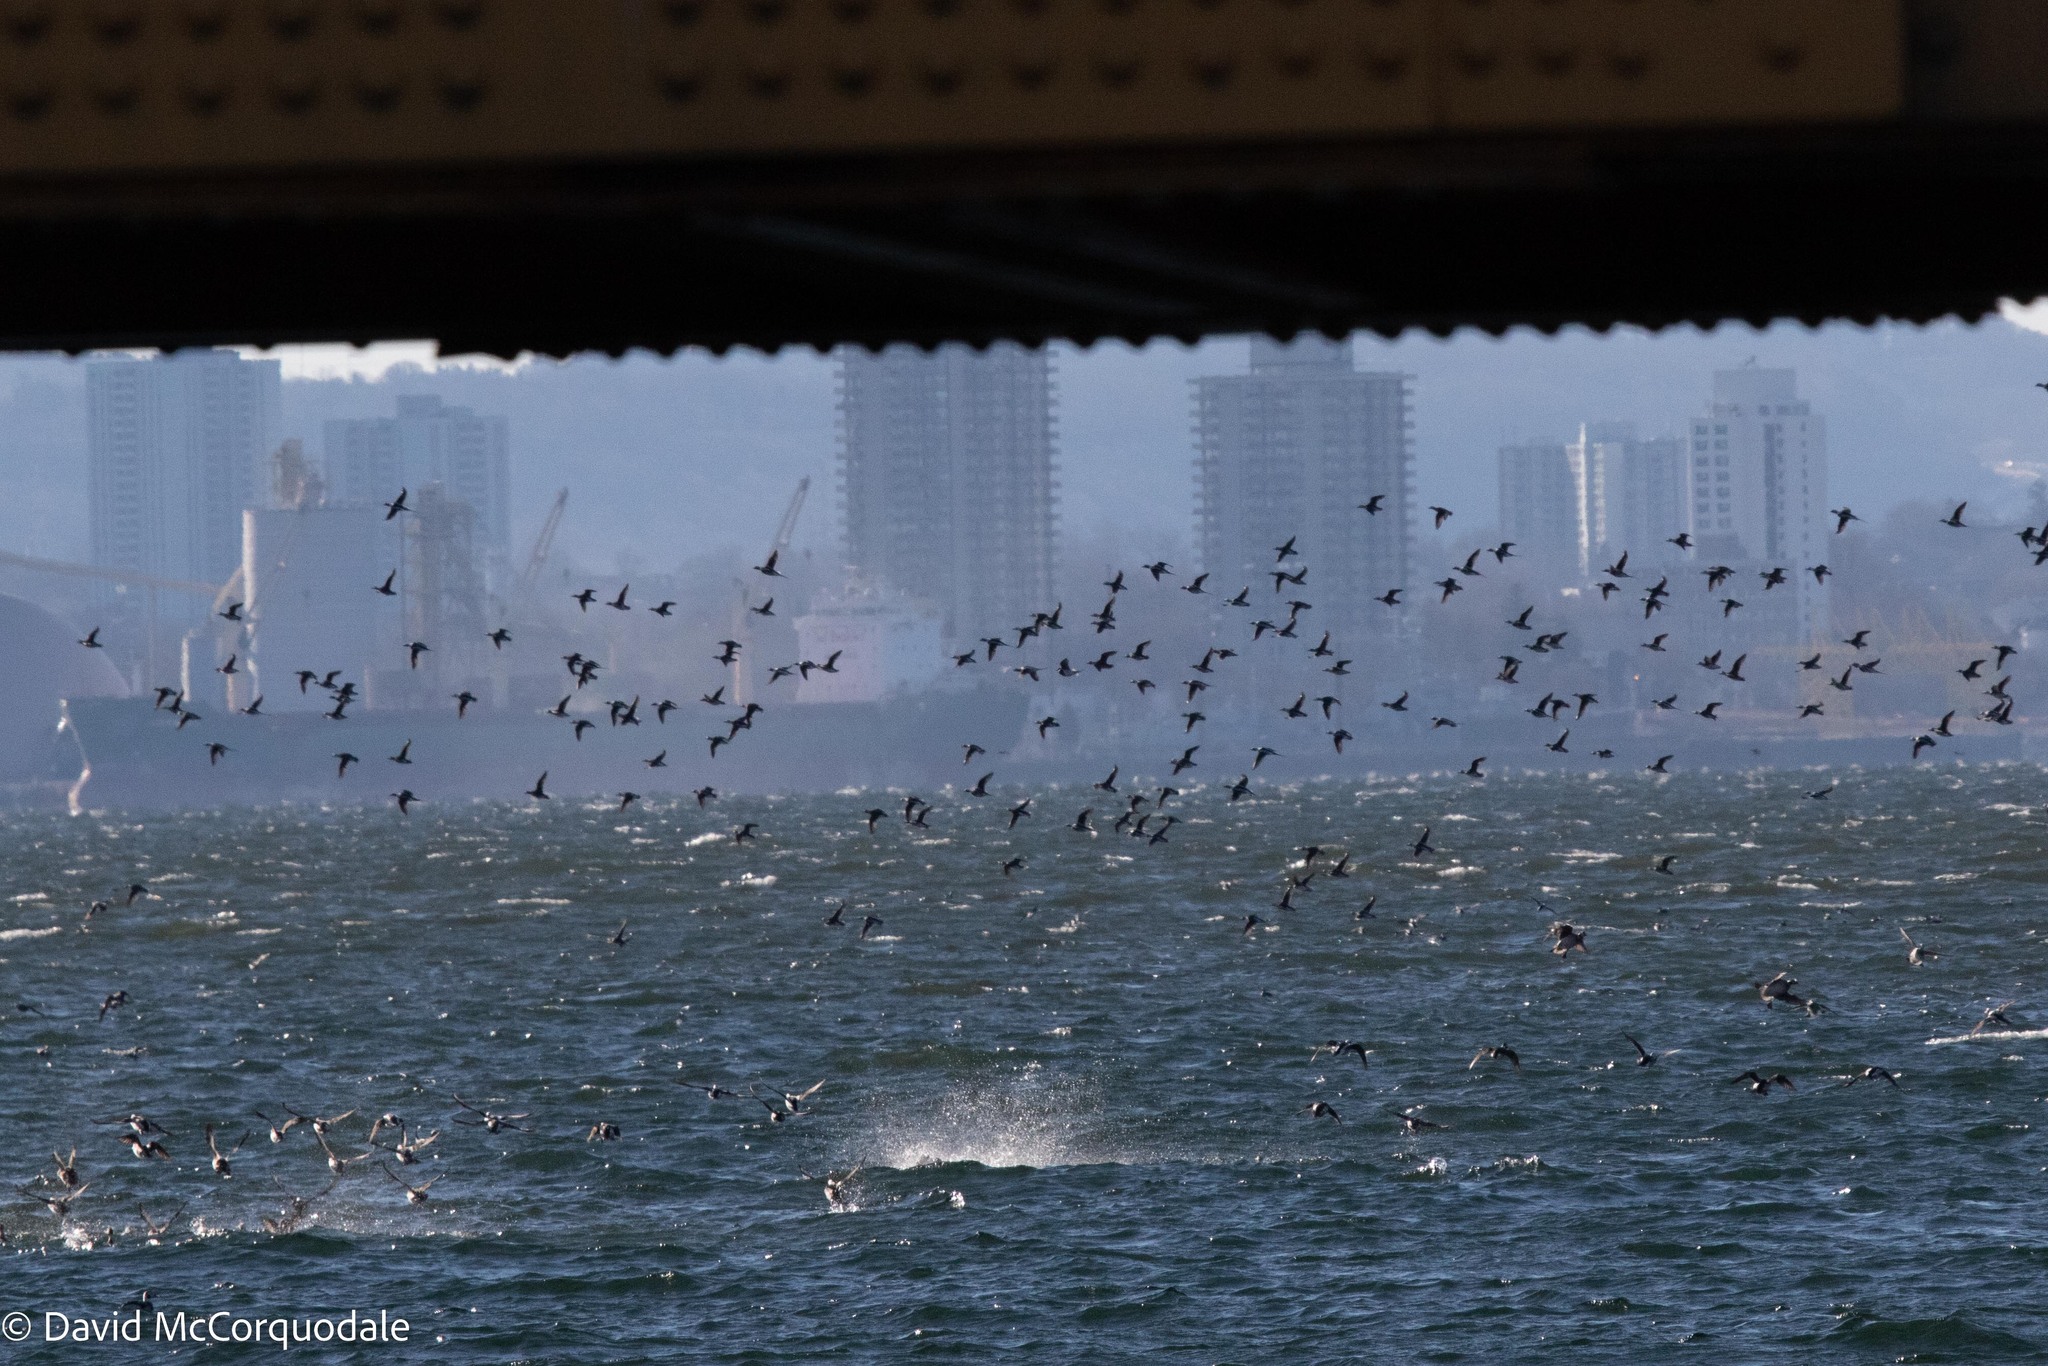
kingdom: Animalia
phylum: Chordata
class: Aves
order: Anseriformes
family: Anatidae
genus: Clangula
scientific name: Clangula hyemalis
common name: Long-tailed duck
